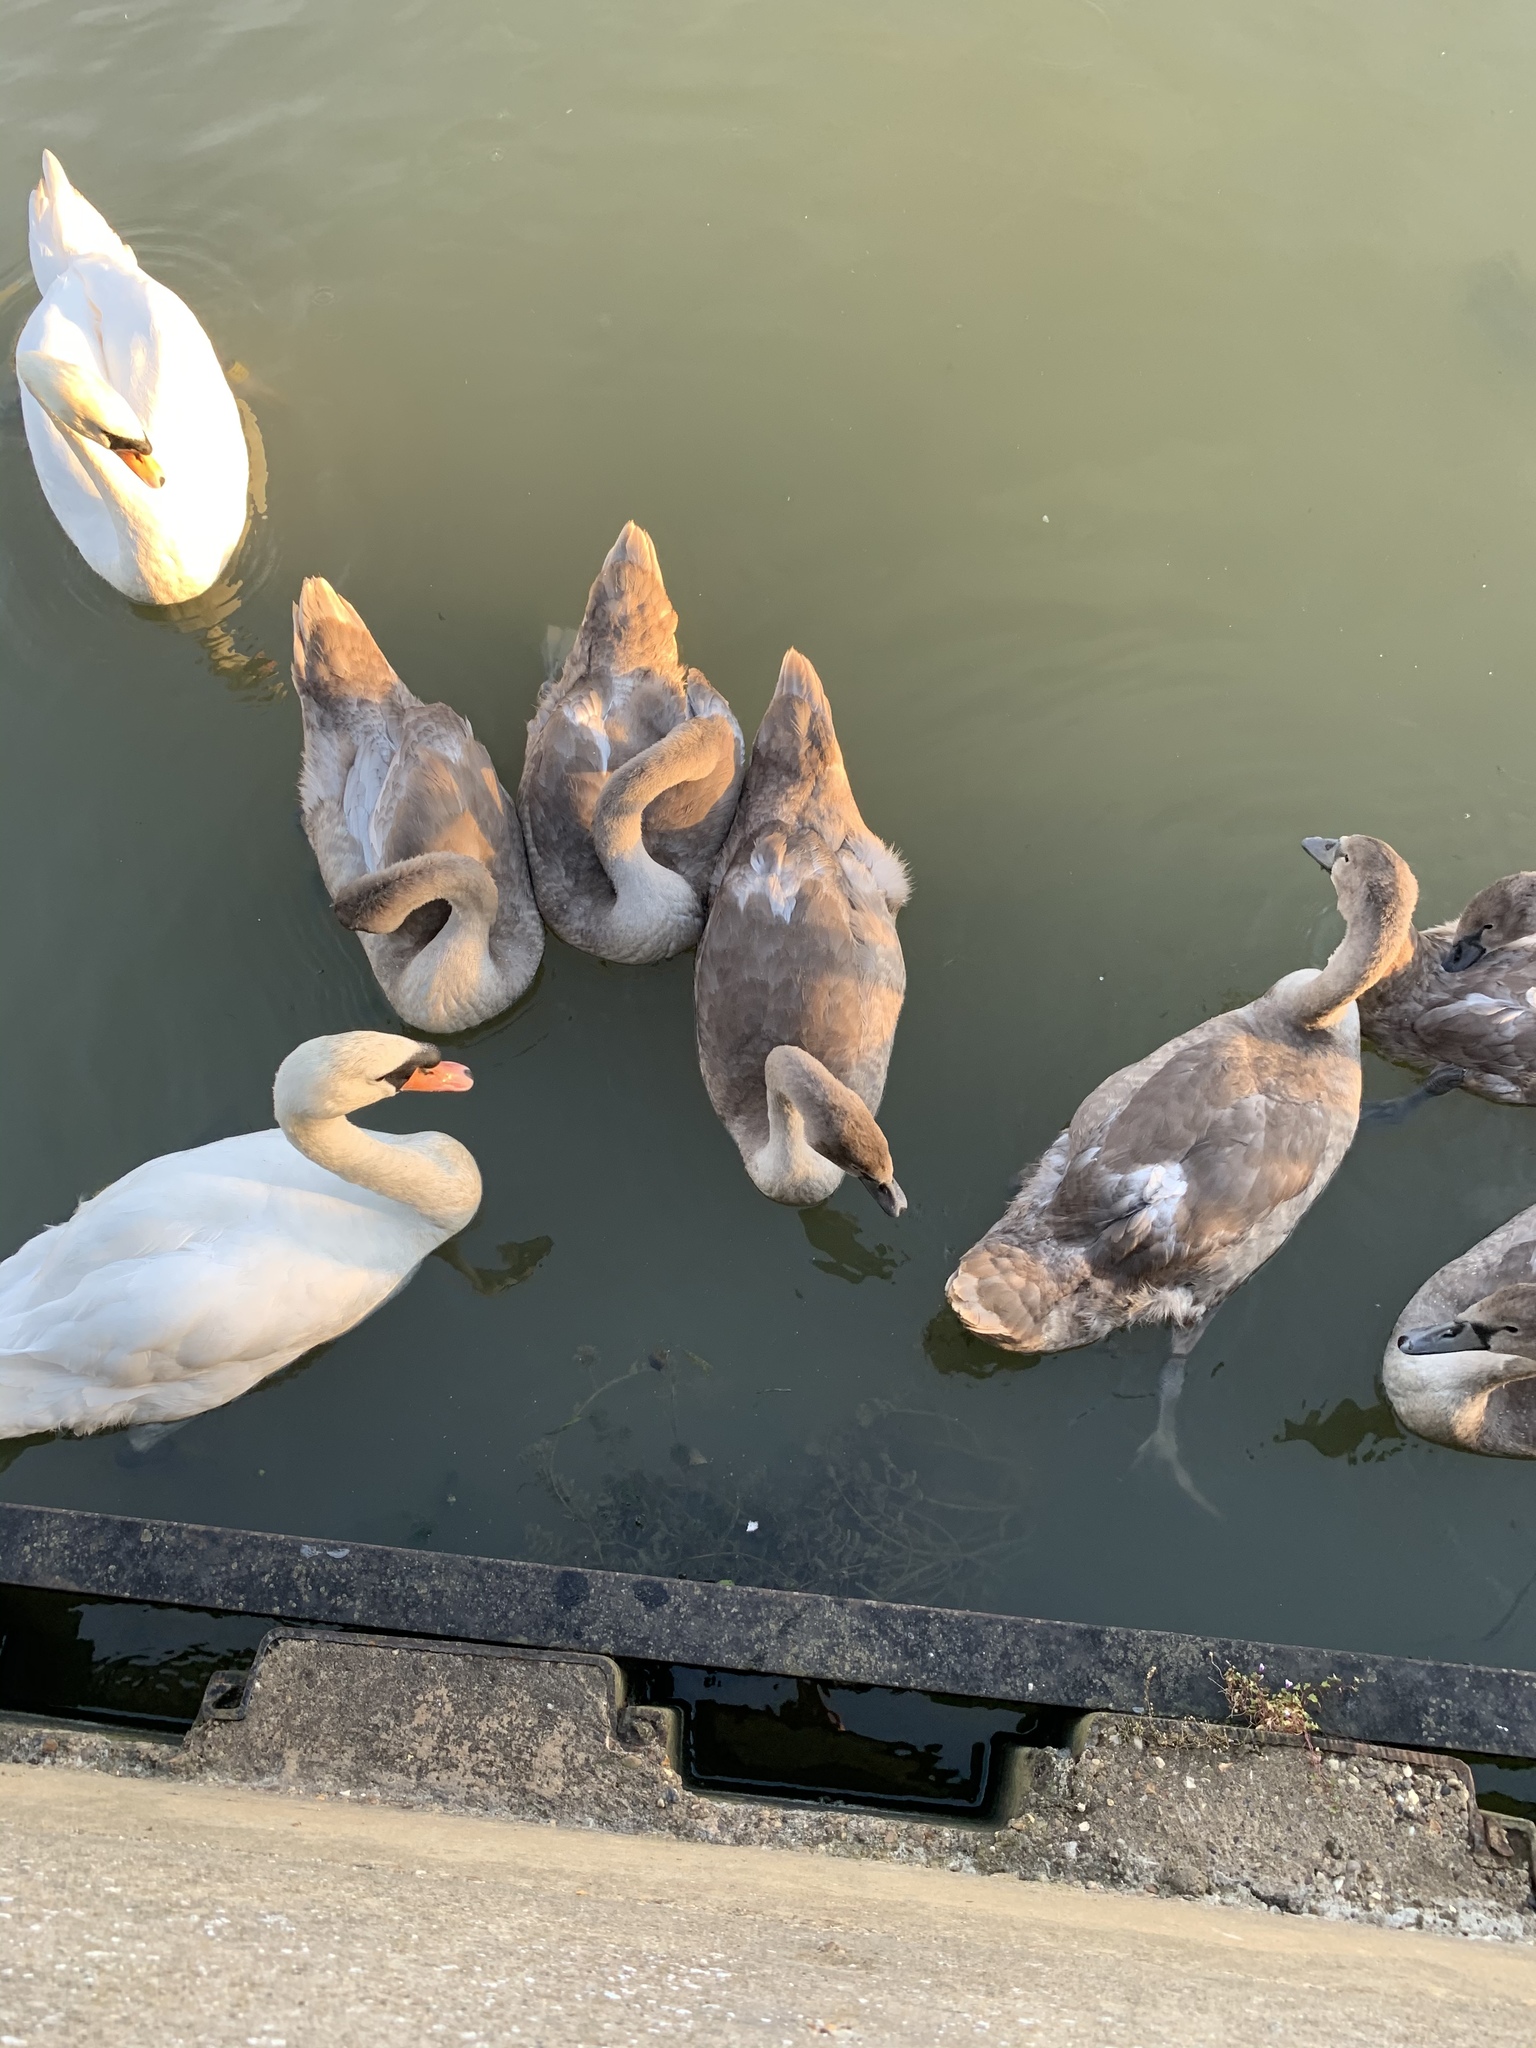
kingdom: Animalia
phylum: Chordata
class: Aves
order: Anseriformes
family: Anatidae
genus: Cygnus
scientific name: Cygnus olor
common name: Mute swan
